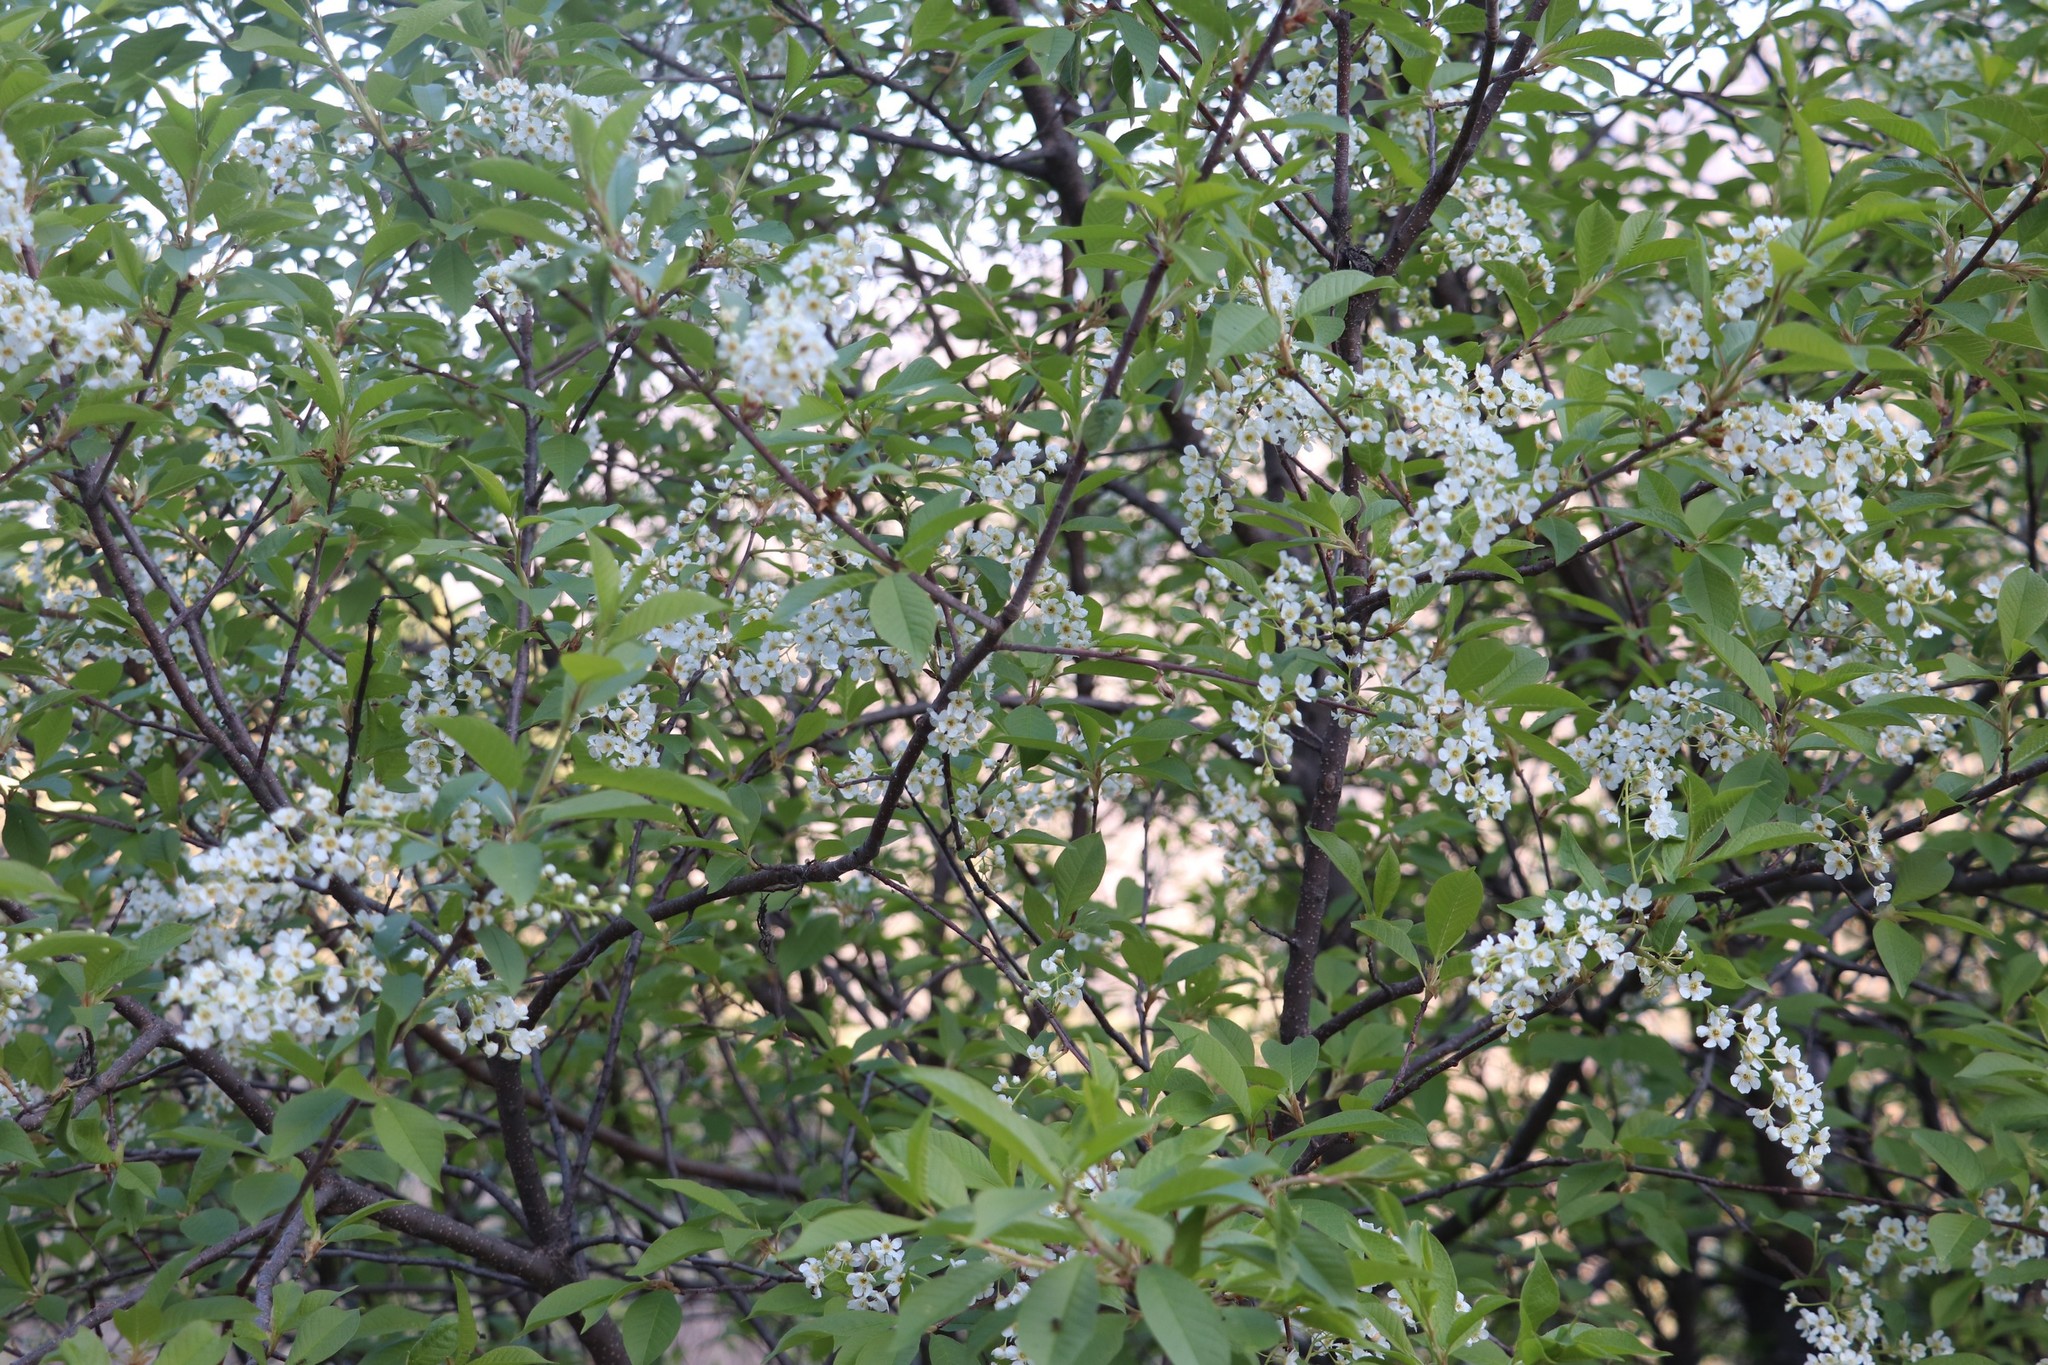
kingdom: Plantae
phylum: Tracheophyta
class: Magnoliopsida
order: Rosales
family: Rosaceae
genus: Prunus
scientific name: Prunus padus
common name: Bird cherry
